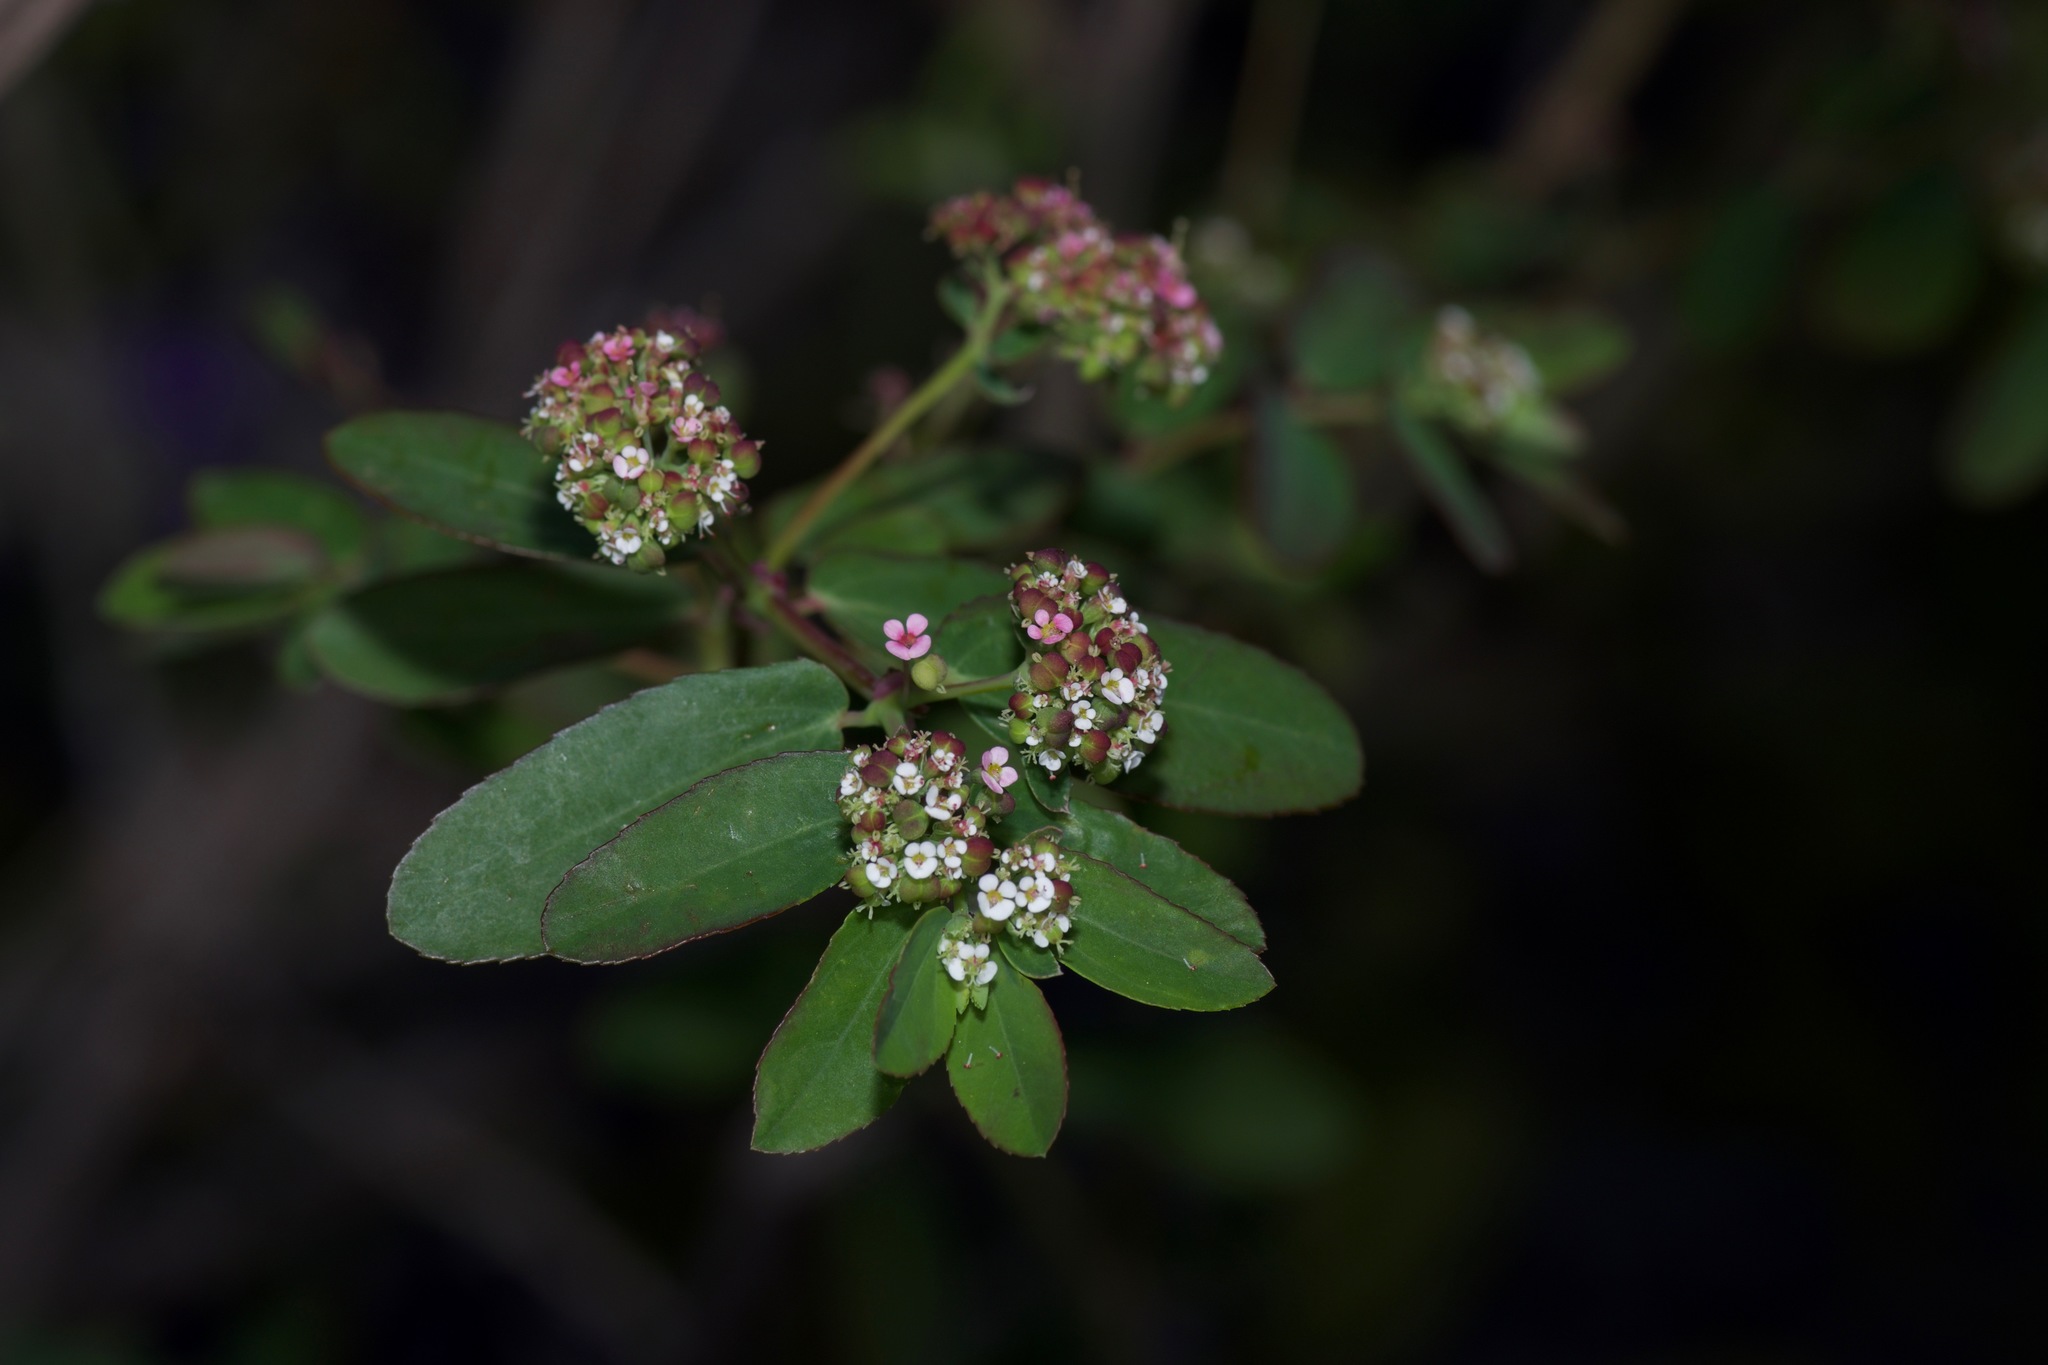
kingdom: Plantae
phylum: Tracheophyta
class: Magnoliopsida
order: Malpighiales
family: Euphorbiaceae
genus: Euphorbia
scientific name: Euphorbia hypericifolia
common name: Graceful sandmat
